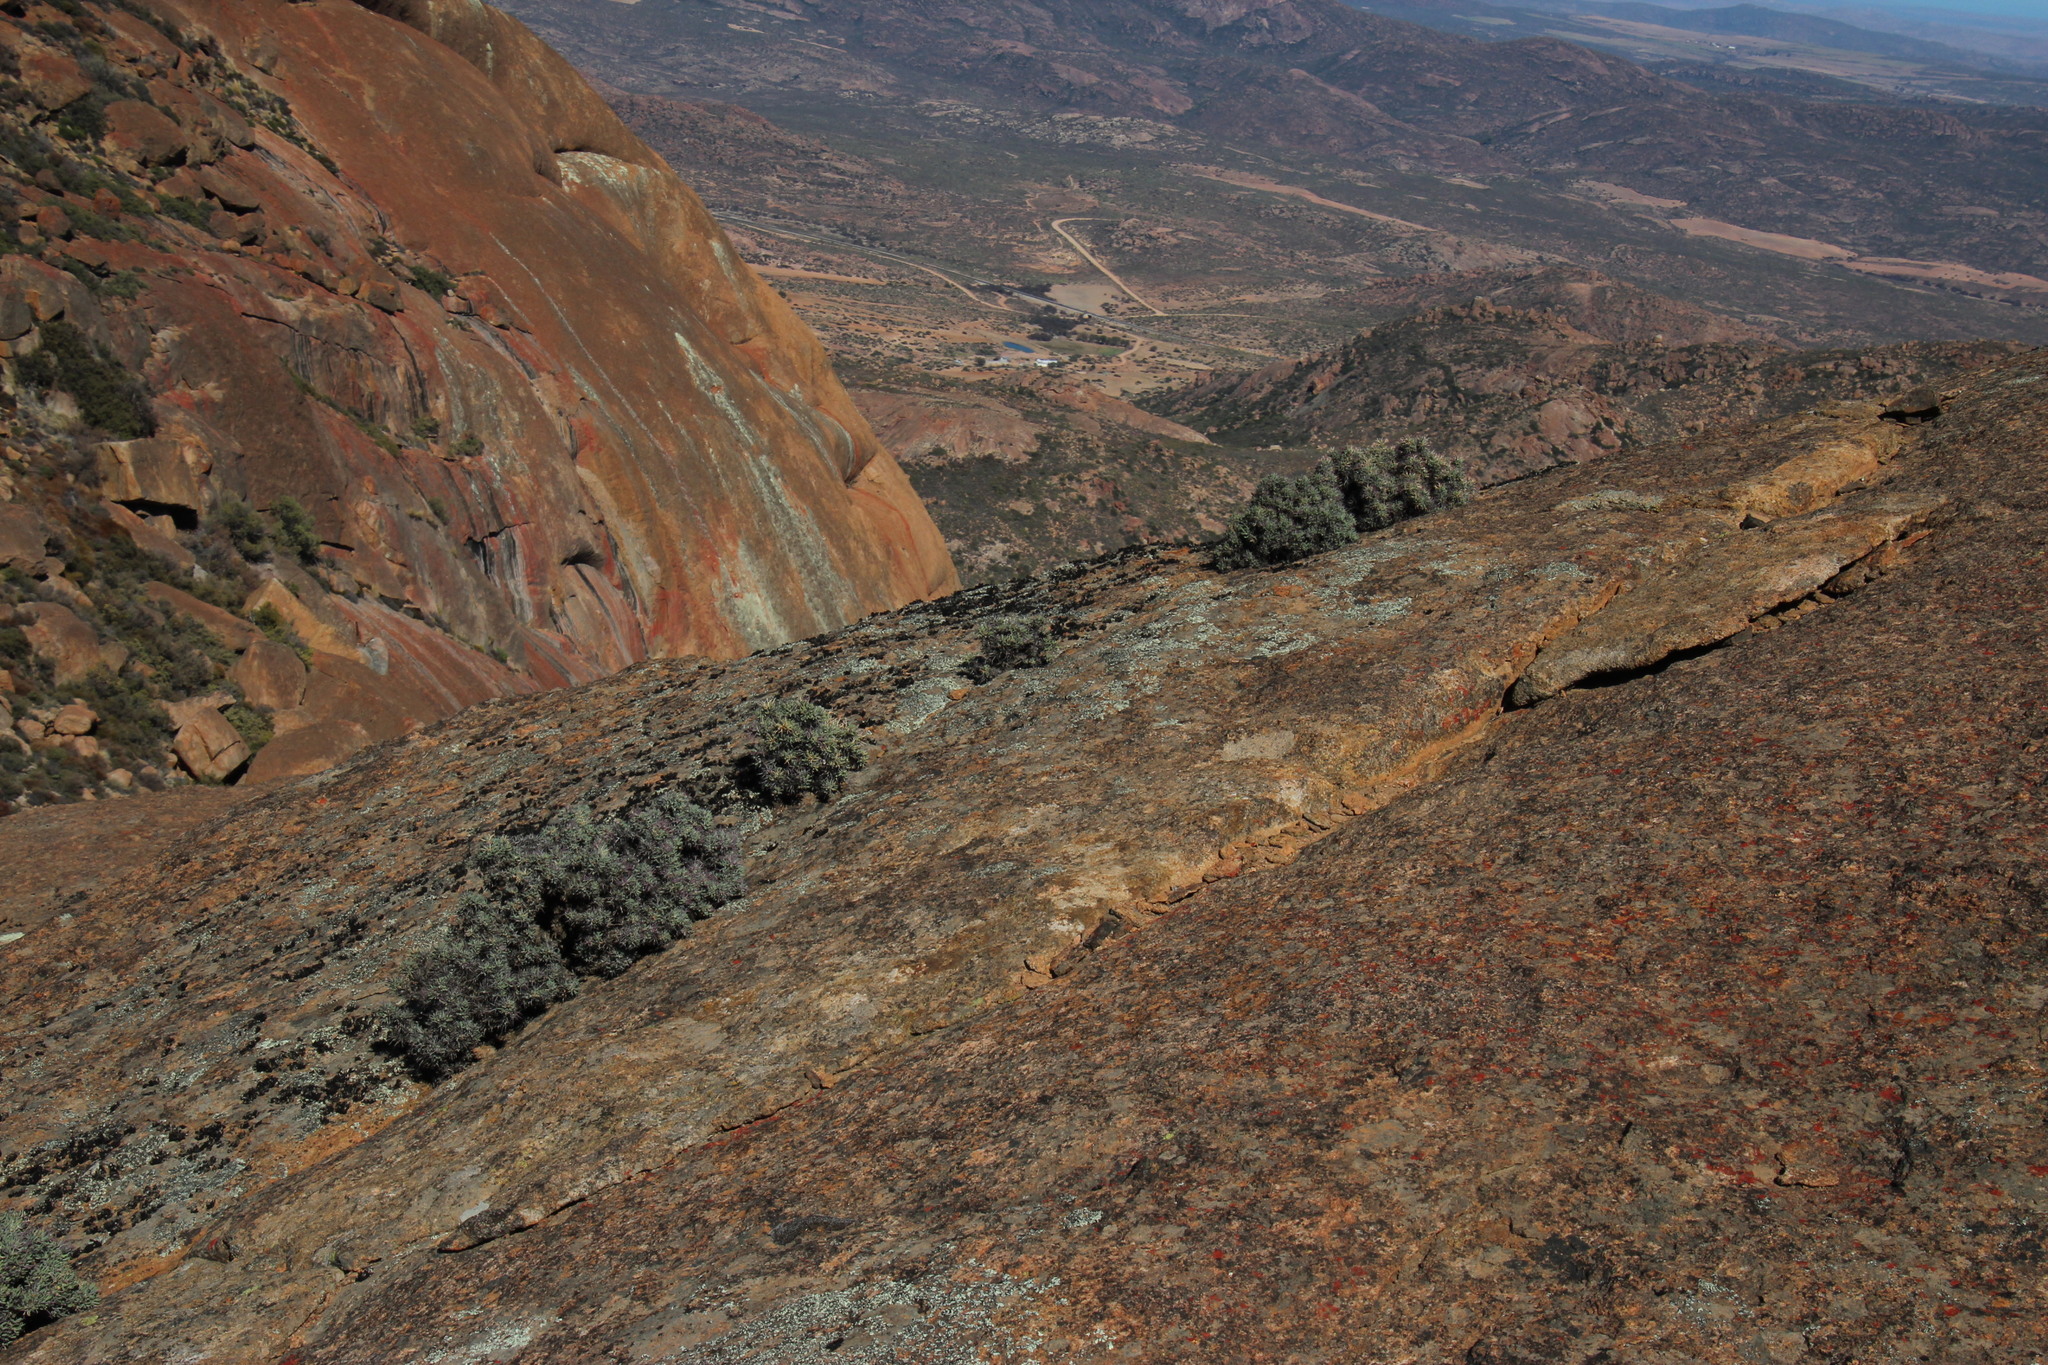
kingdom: Plantae
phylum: Tracheophyta
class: Magnoliopsida
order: Asterales
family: Asteraceae
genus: Othonna
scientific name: Othonna euphorbioides
